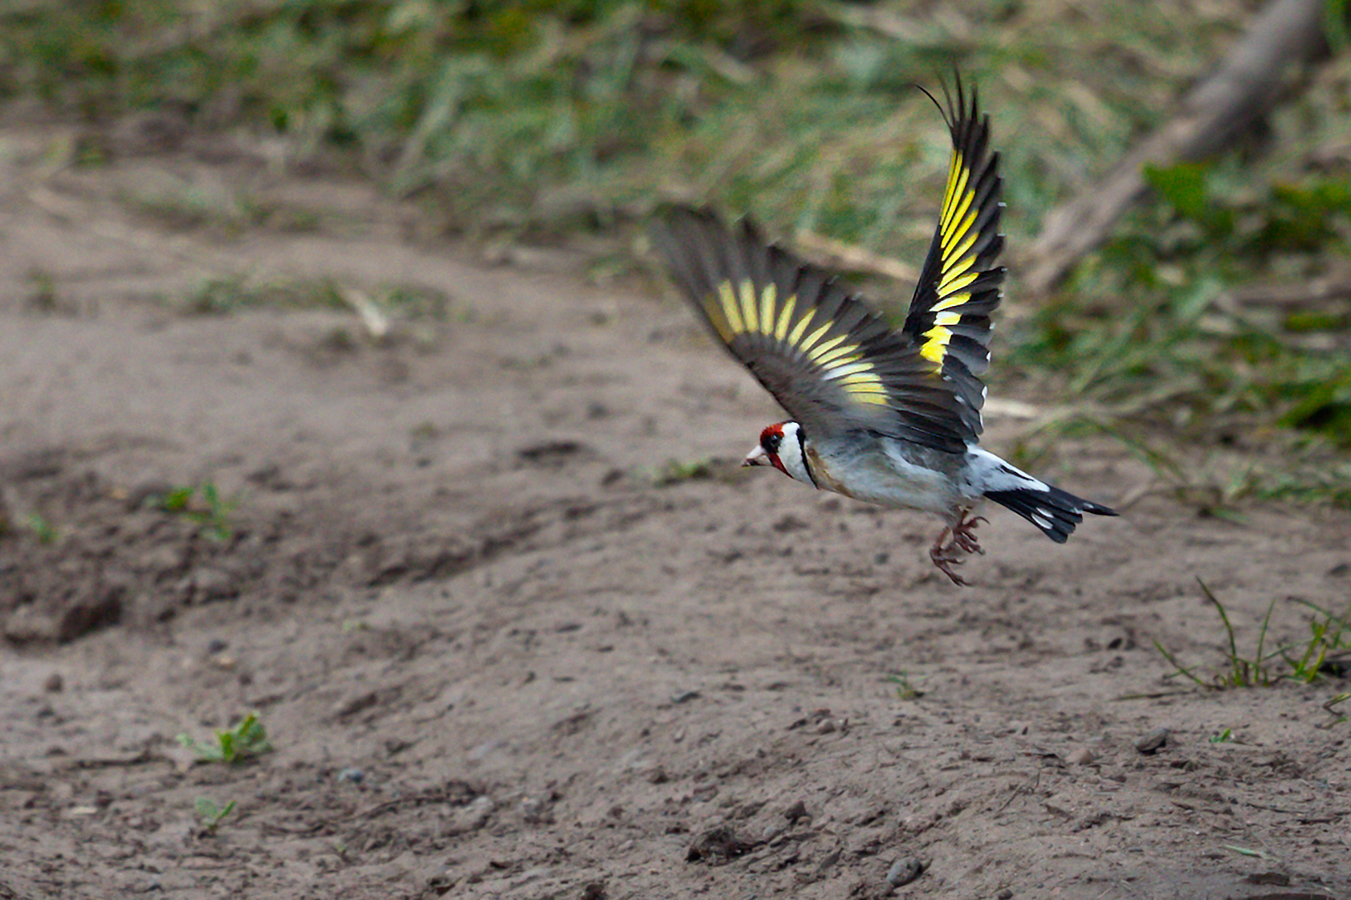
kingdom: Animalia
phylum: Chordata
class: Aves
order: Passeriformes
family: Fringillidae
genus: Carduelis
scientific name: Carduelis carduelis
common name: European goldfinch
